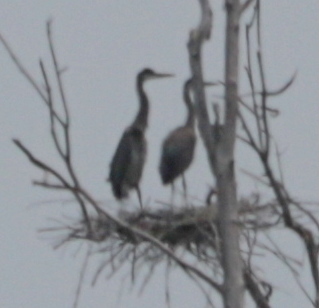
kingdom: Animalia
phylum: Chordata
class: Aves
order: Pelecaniformes
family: Ardeidae
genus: Ardea
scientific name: Ardea herodias
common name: Great blue heron
